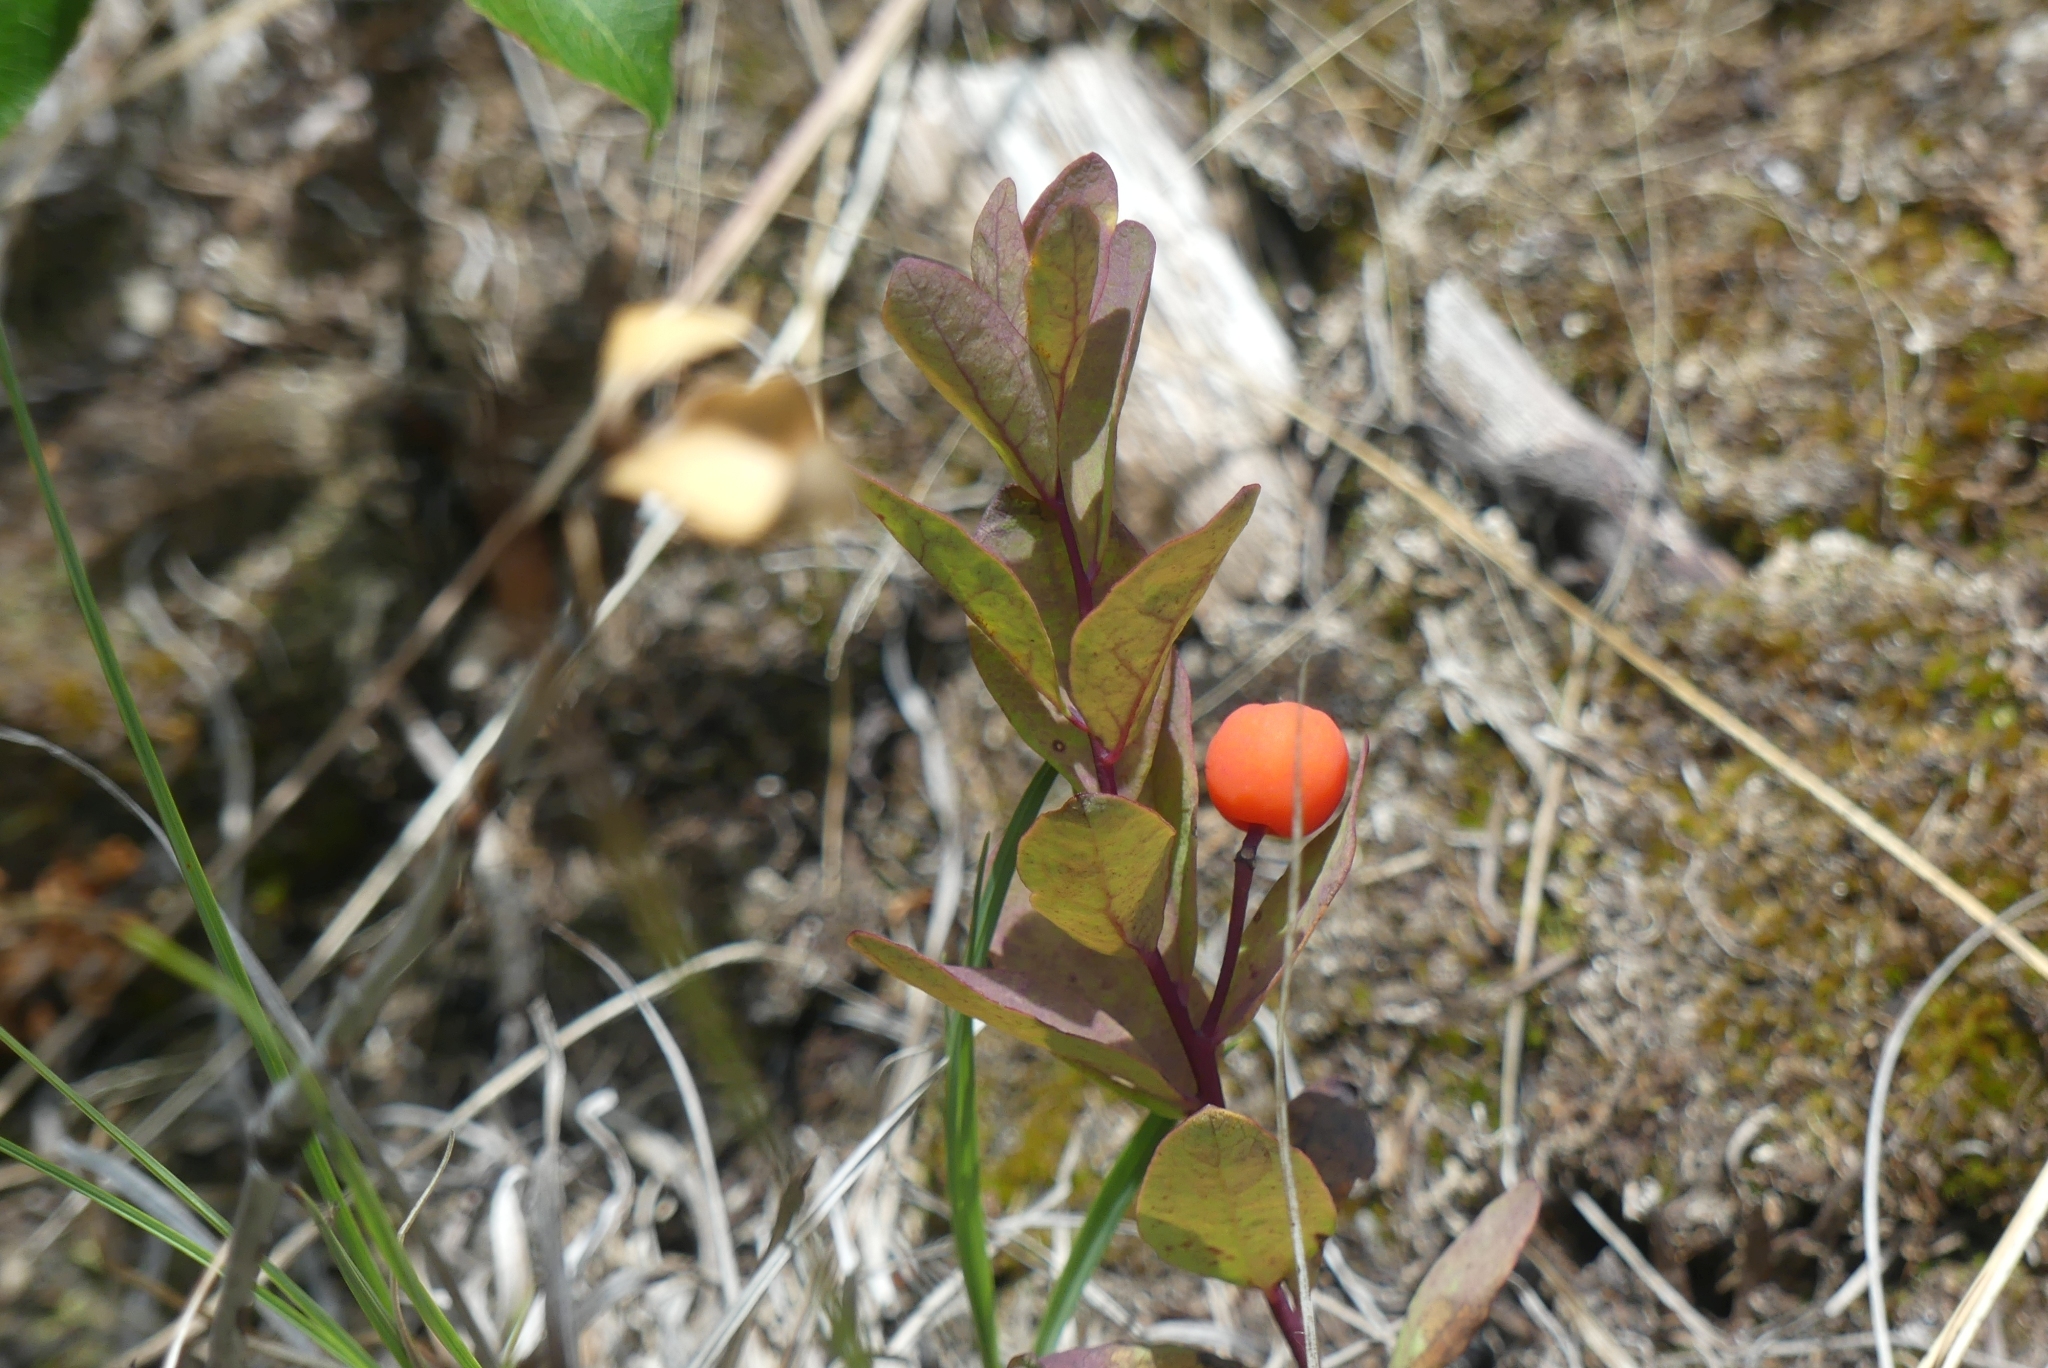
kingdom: Plantae
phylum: Tracheophyta
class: Magnoliopsida
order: Santalales
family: Comandraceae
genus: Geocaulon
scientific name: Geocaulon lividum
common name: Earthberry
